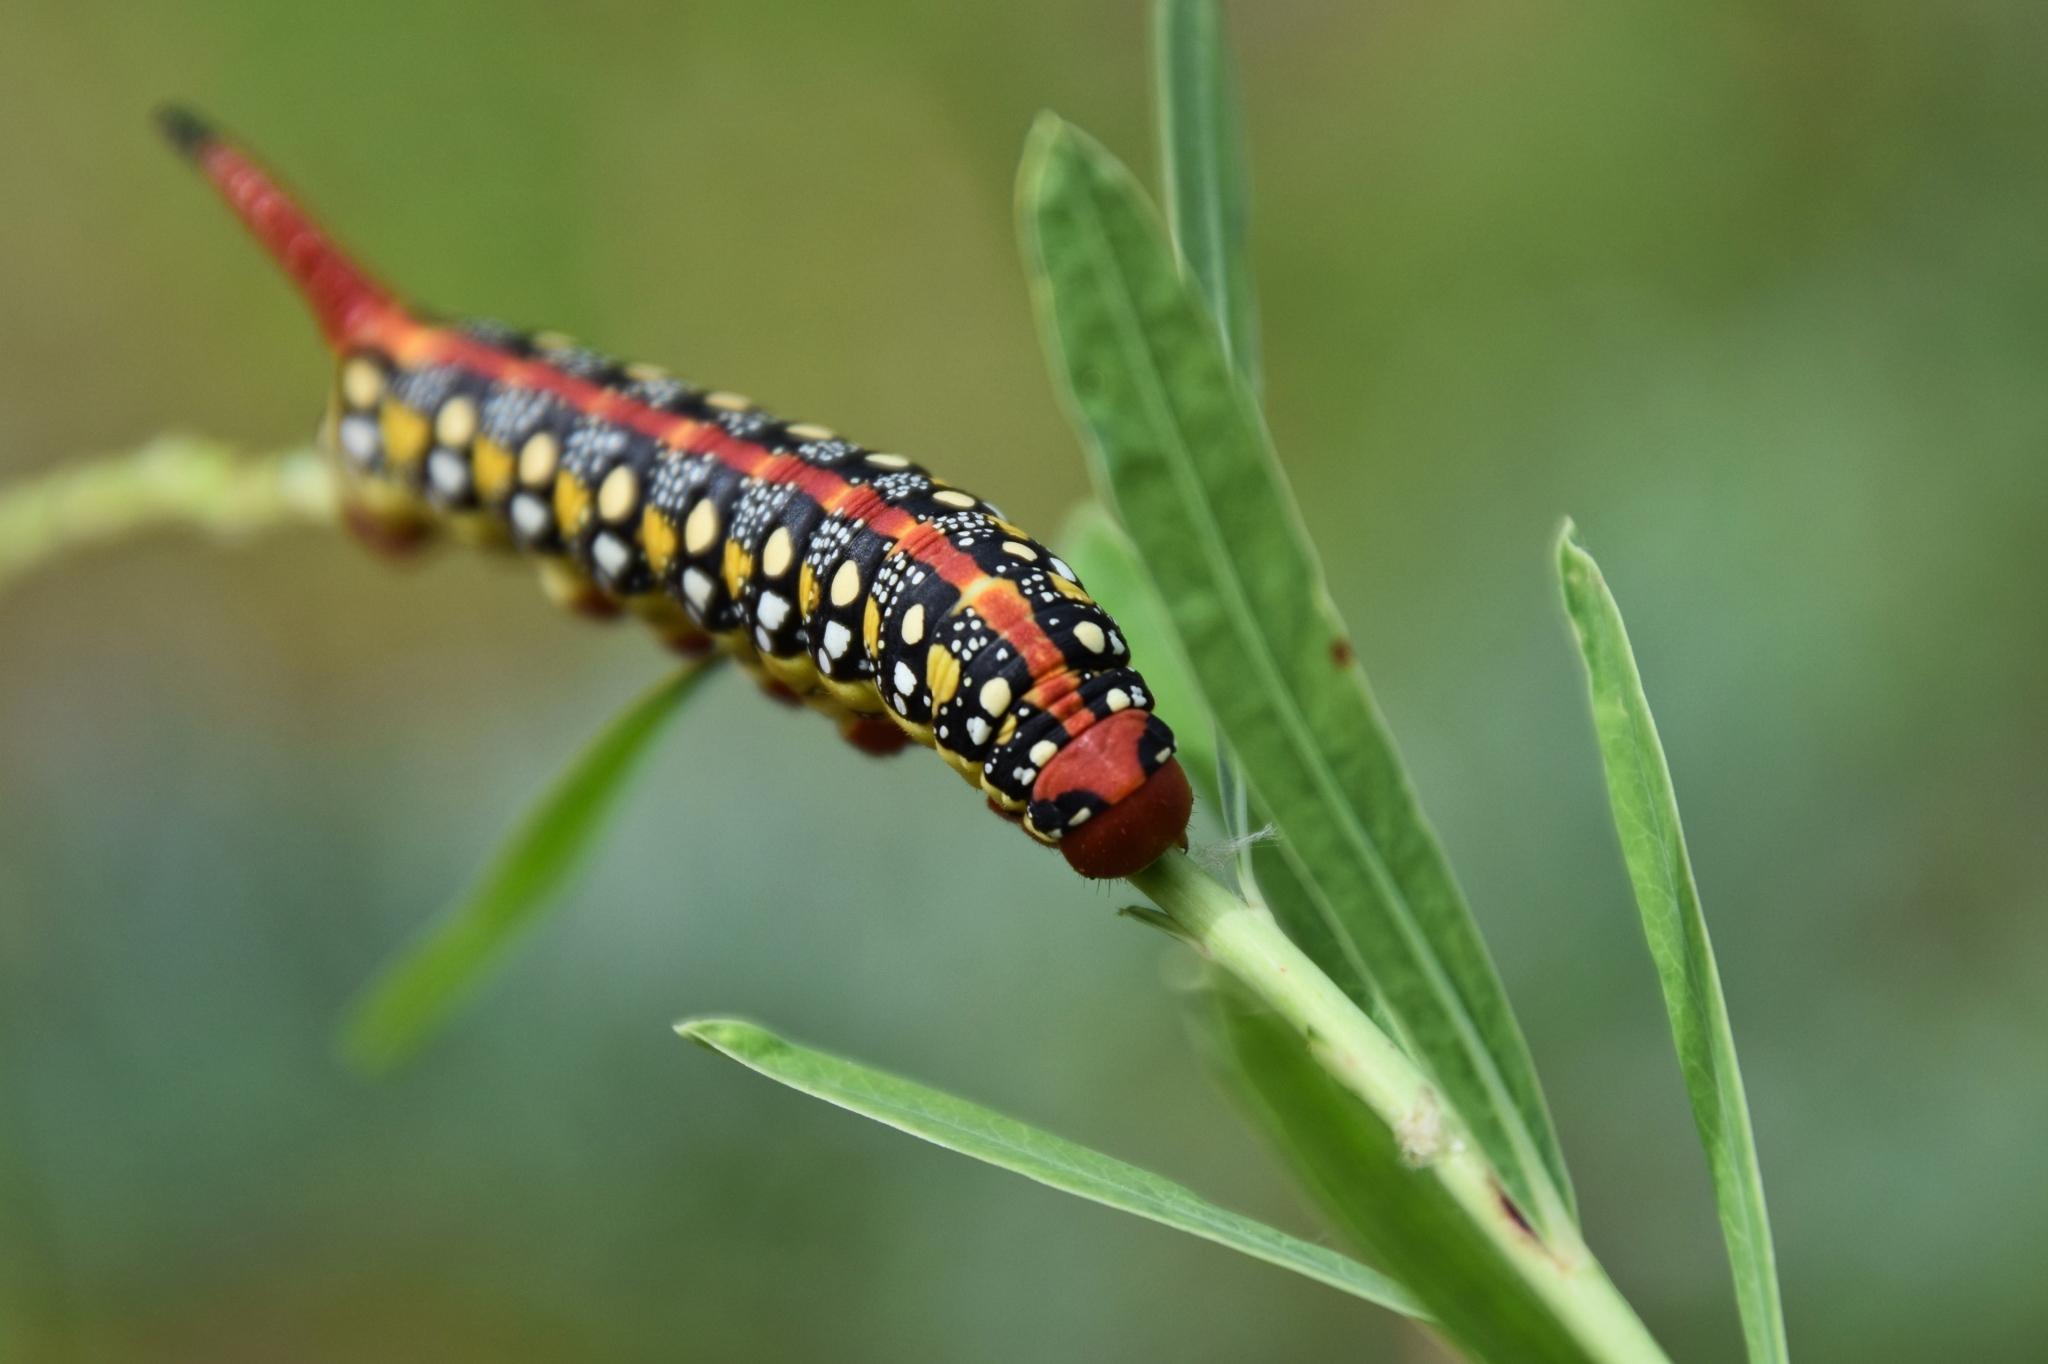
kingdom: Animalia
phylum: Arthropoda
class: Insecta
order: Lepidoptera
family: Sphingidae
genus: Hyles
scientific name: Hyles euphorbiae
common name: Spurge hawk-moth
